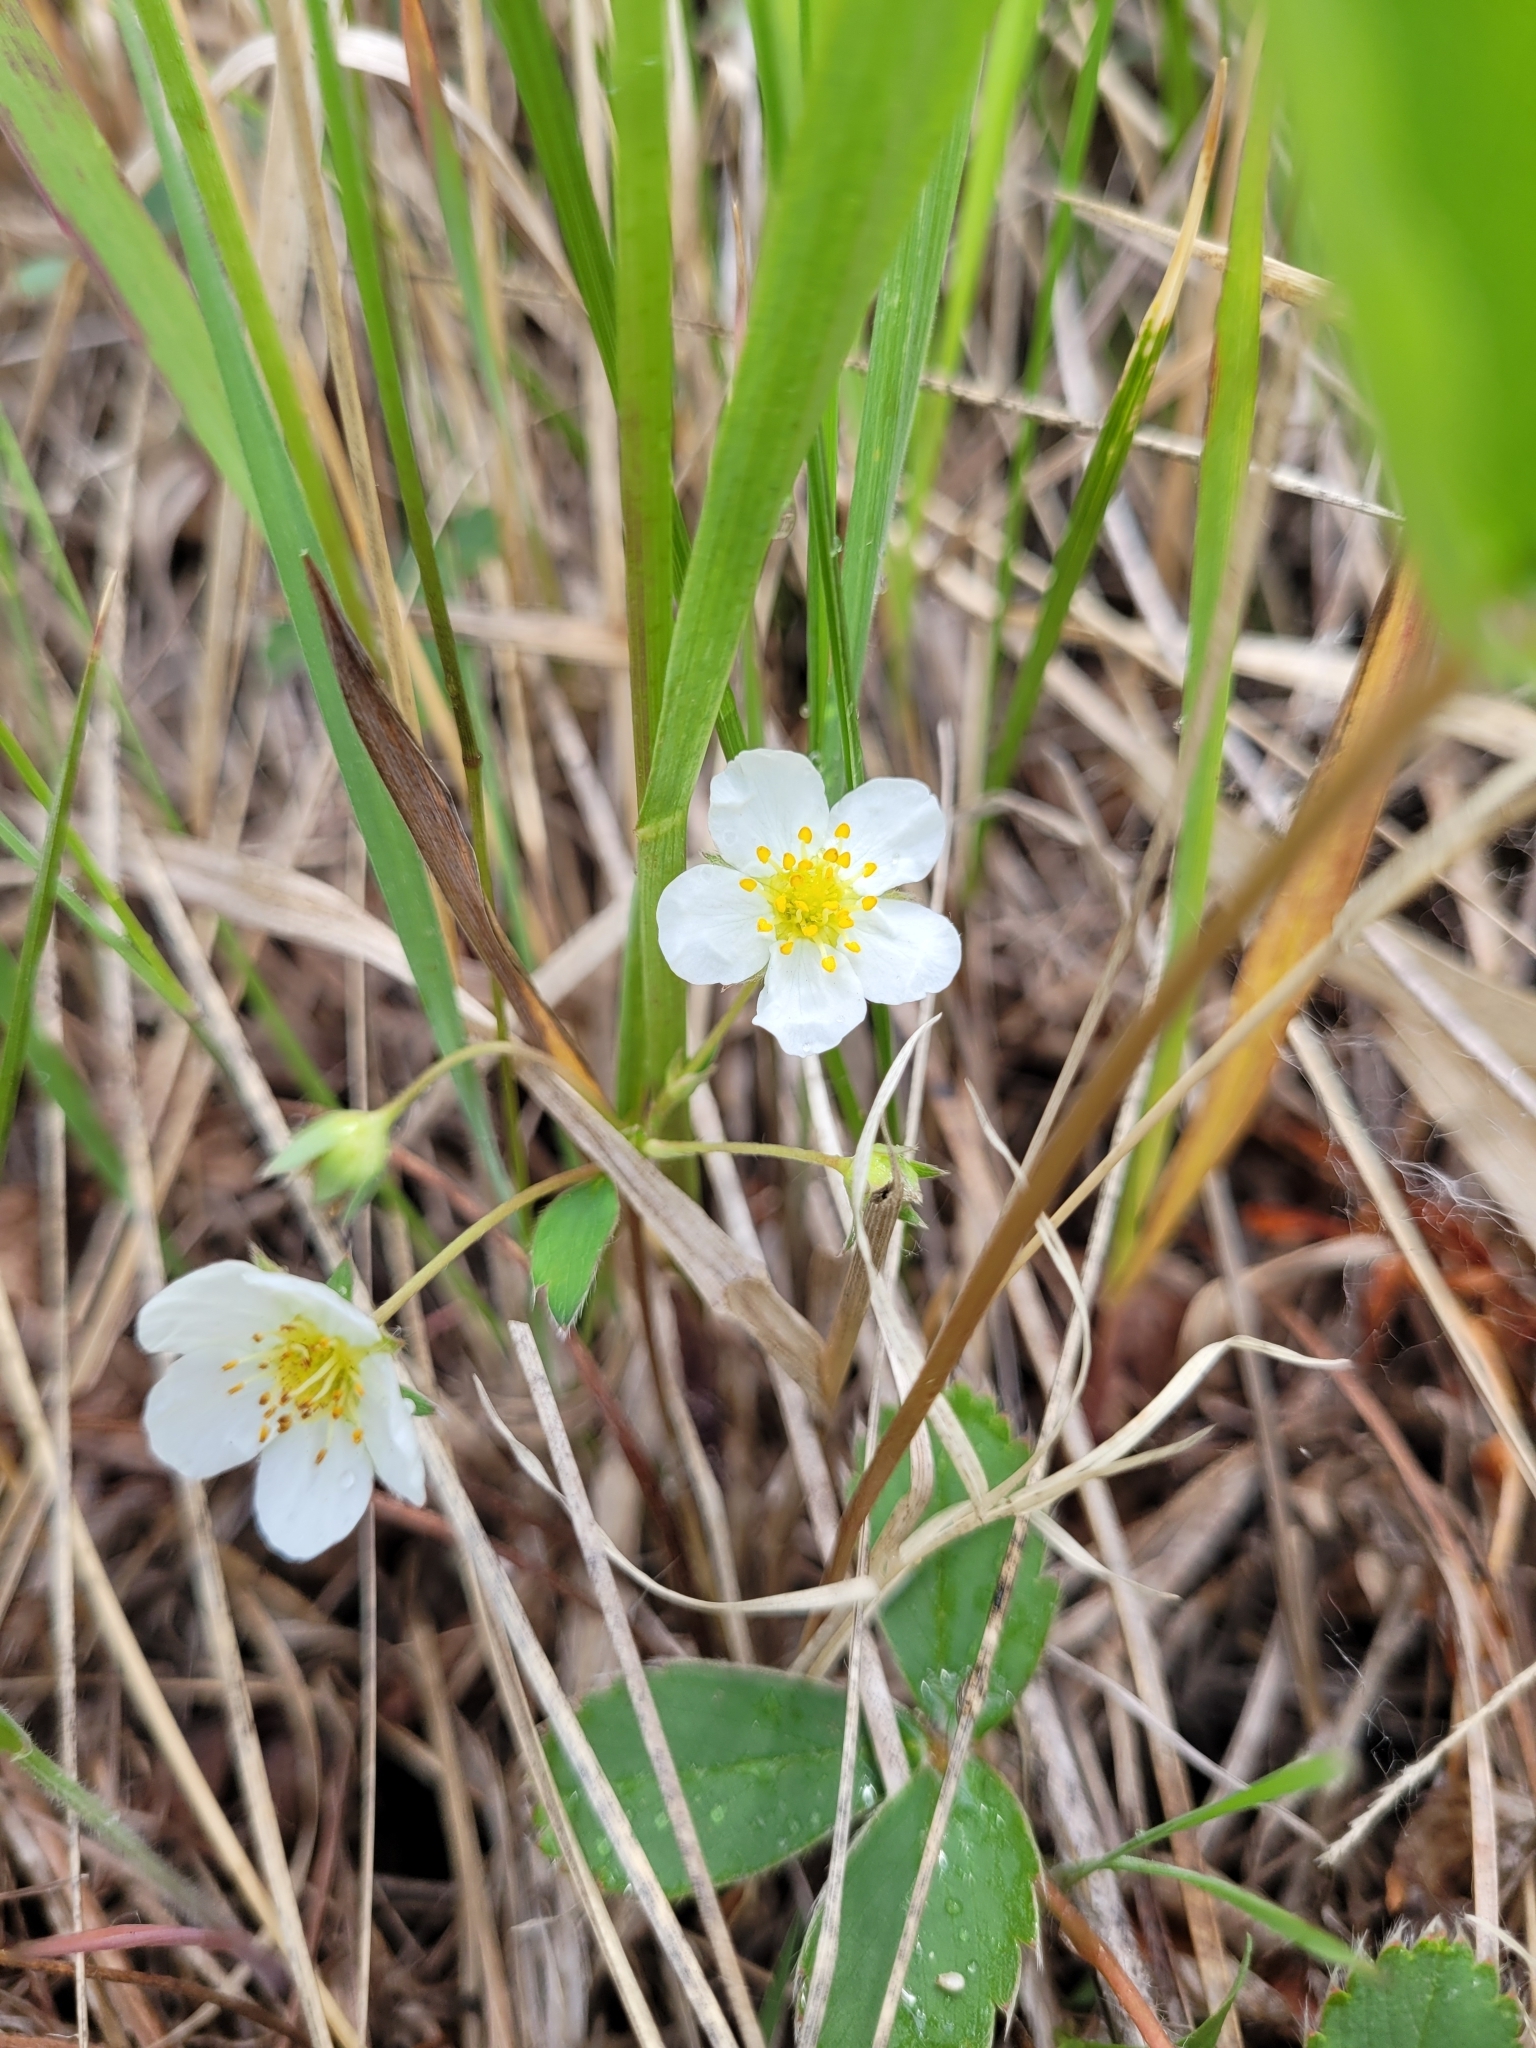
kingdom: Plantae
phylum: Tracheophyta
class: Magnoliopsida
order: Rosales
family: Rosaceae
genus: Fragaria
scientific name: Fragaria virginiana
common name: Thickleaved wild strawberry
